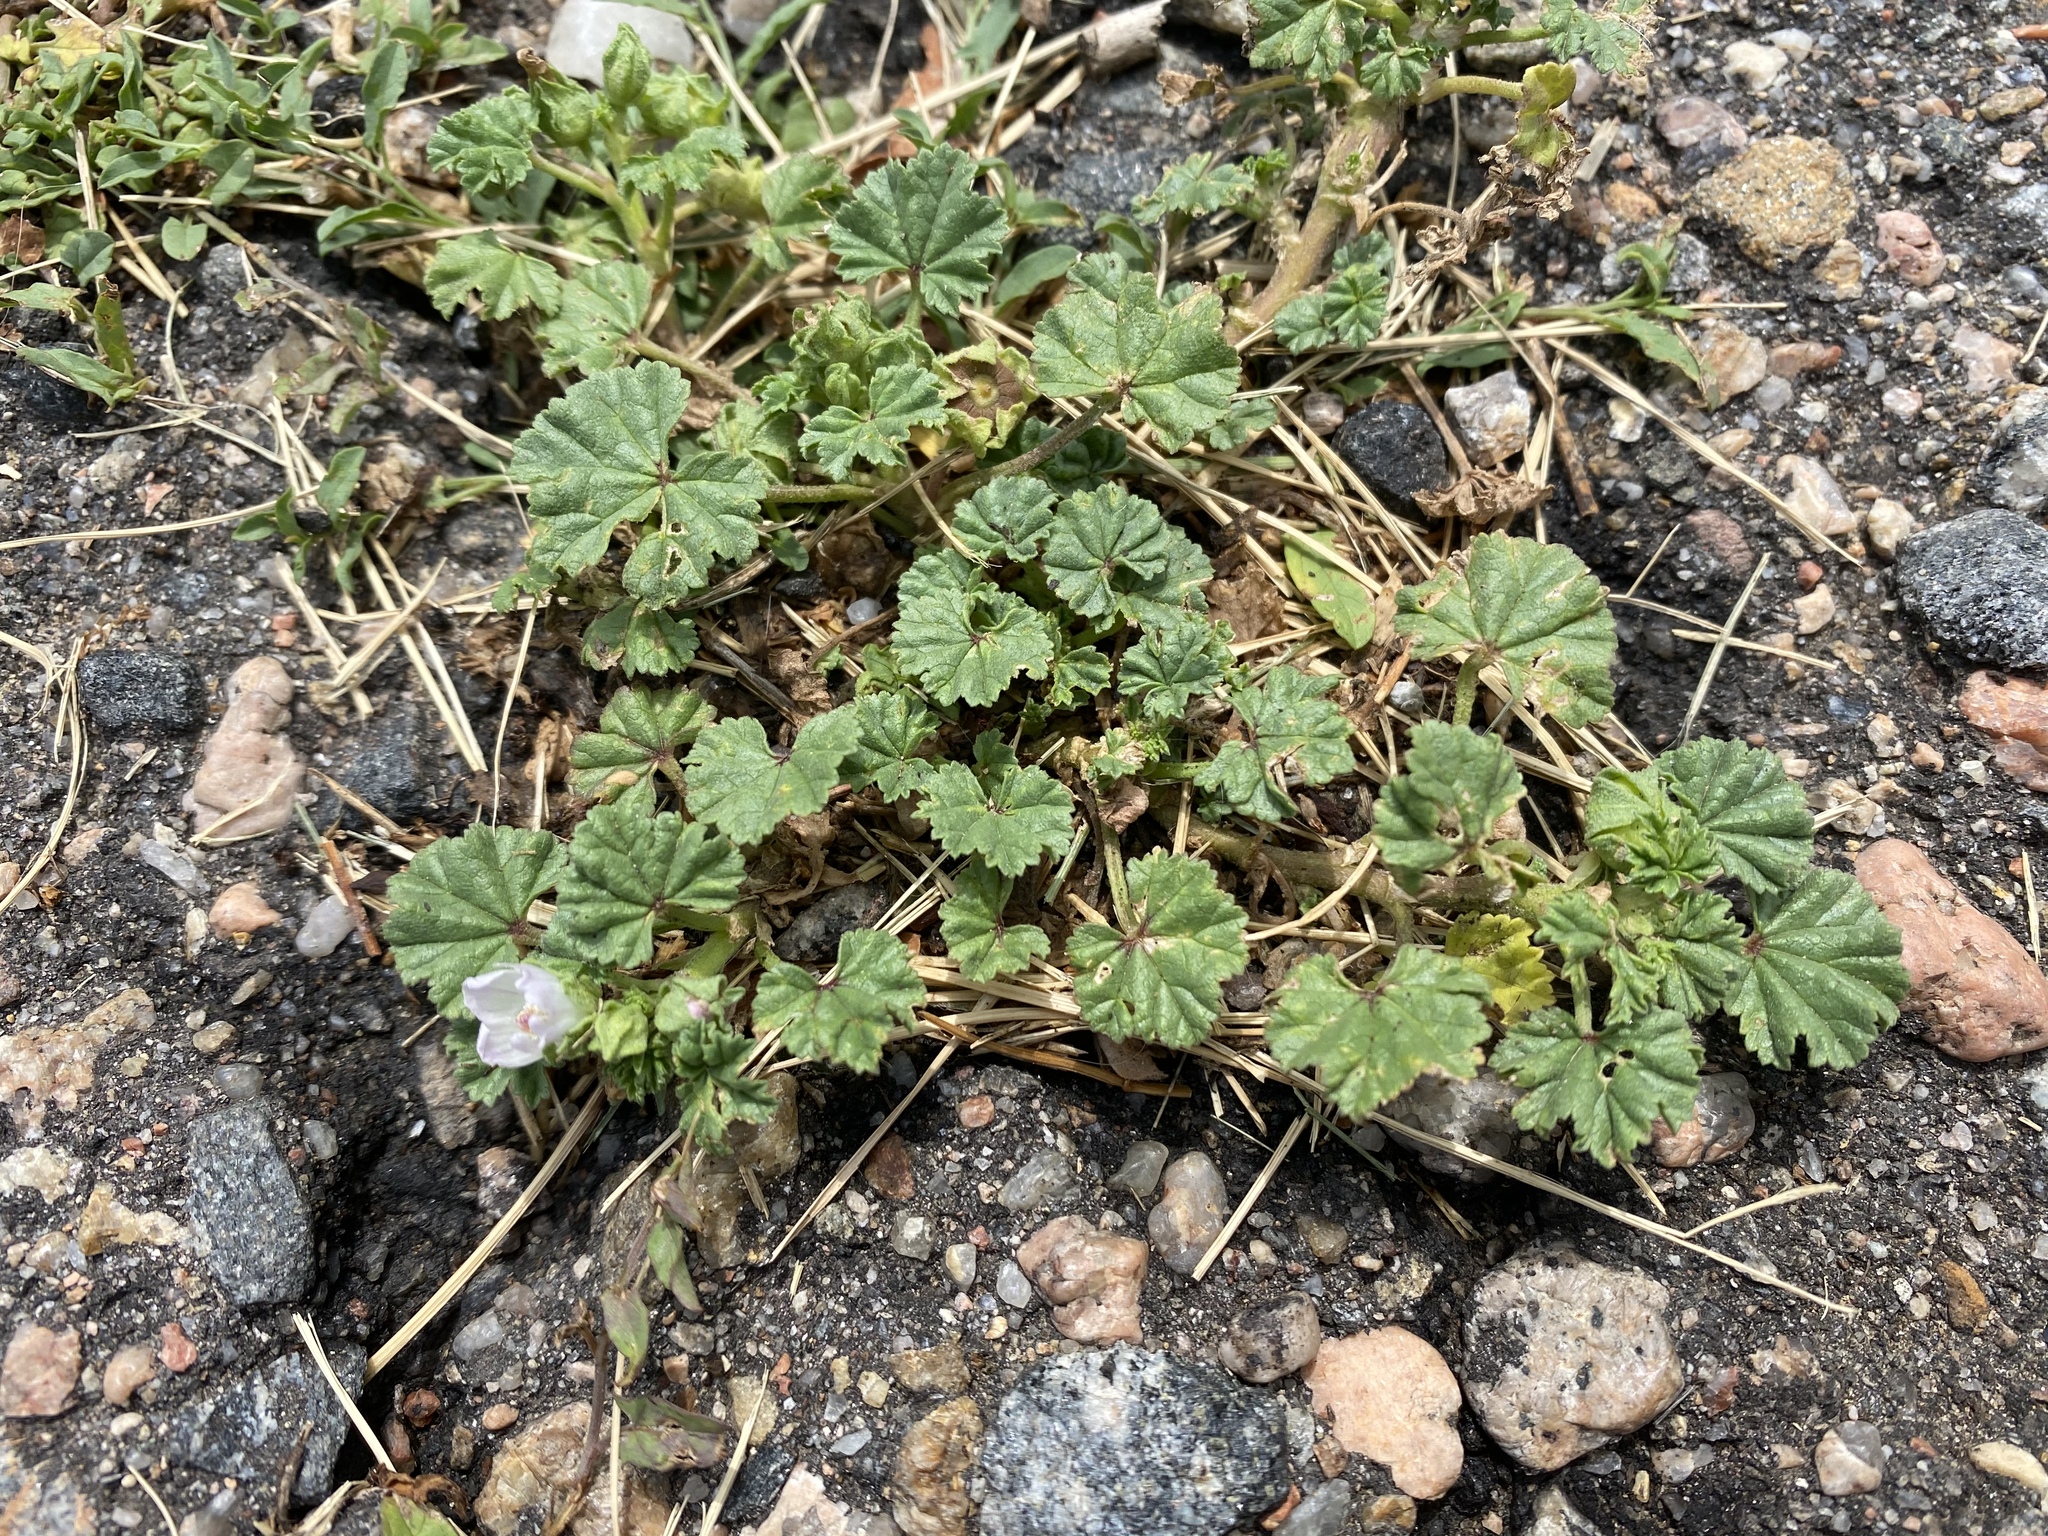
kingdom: Plantae
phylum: Tracheophyta
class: Magnoliopsida
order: Malvales
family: Malvaceae
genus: Malva
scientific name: Malva neglecta
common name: Common mallow
